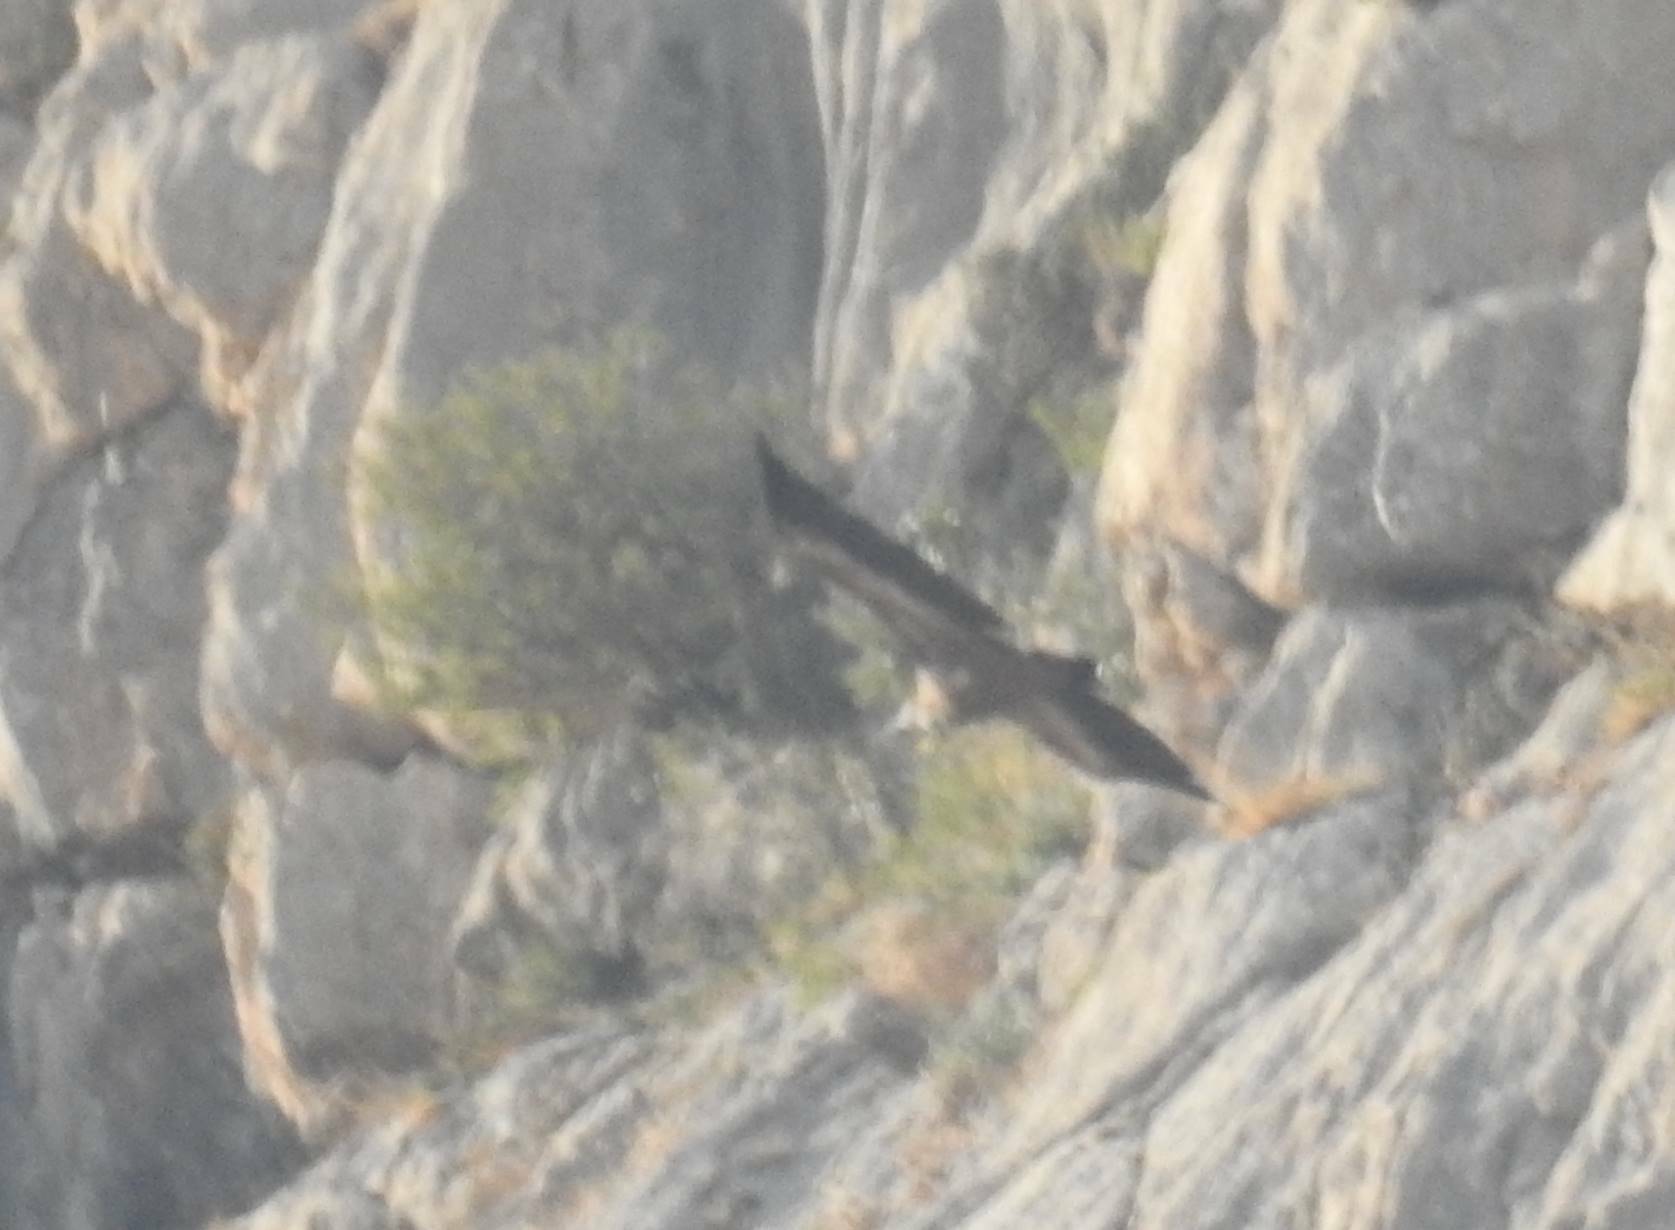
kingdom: Animalia
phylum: Chordata
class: Aves
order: Accipitriformes
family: Accipitridae
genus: Gyps
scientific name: Gyps fulvus
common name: Griffon vulture
